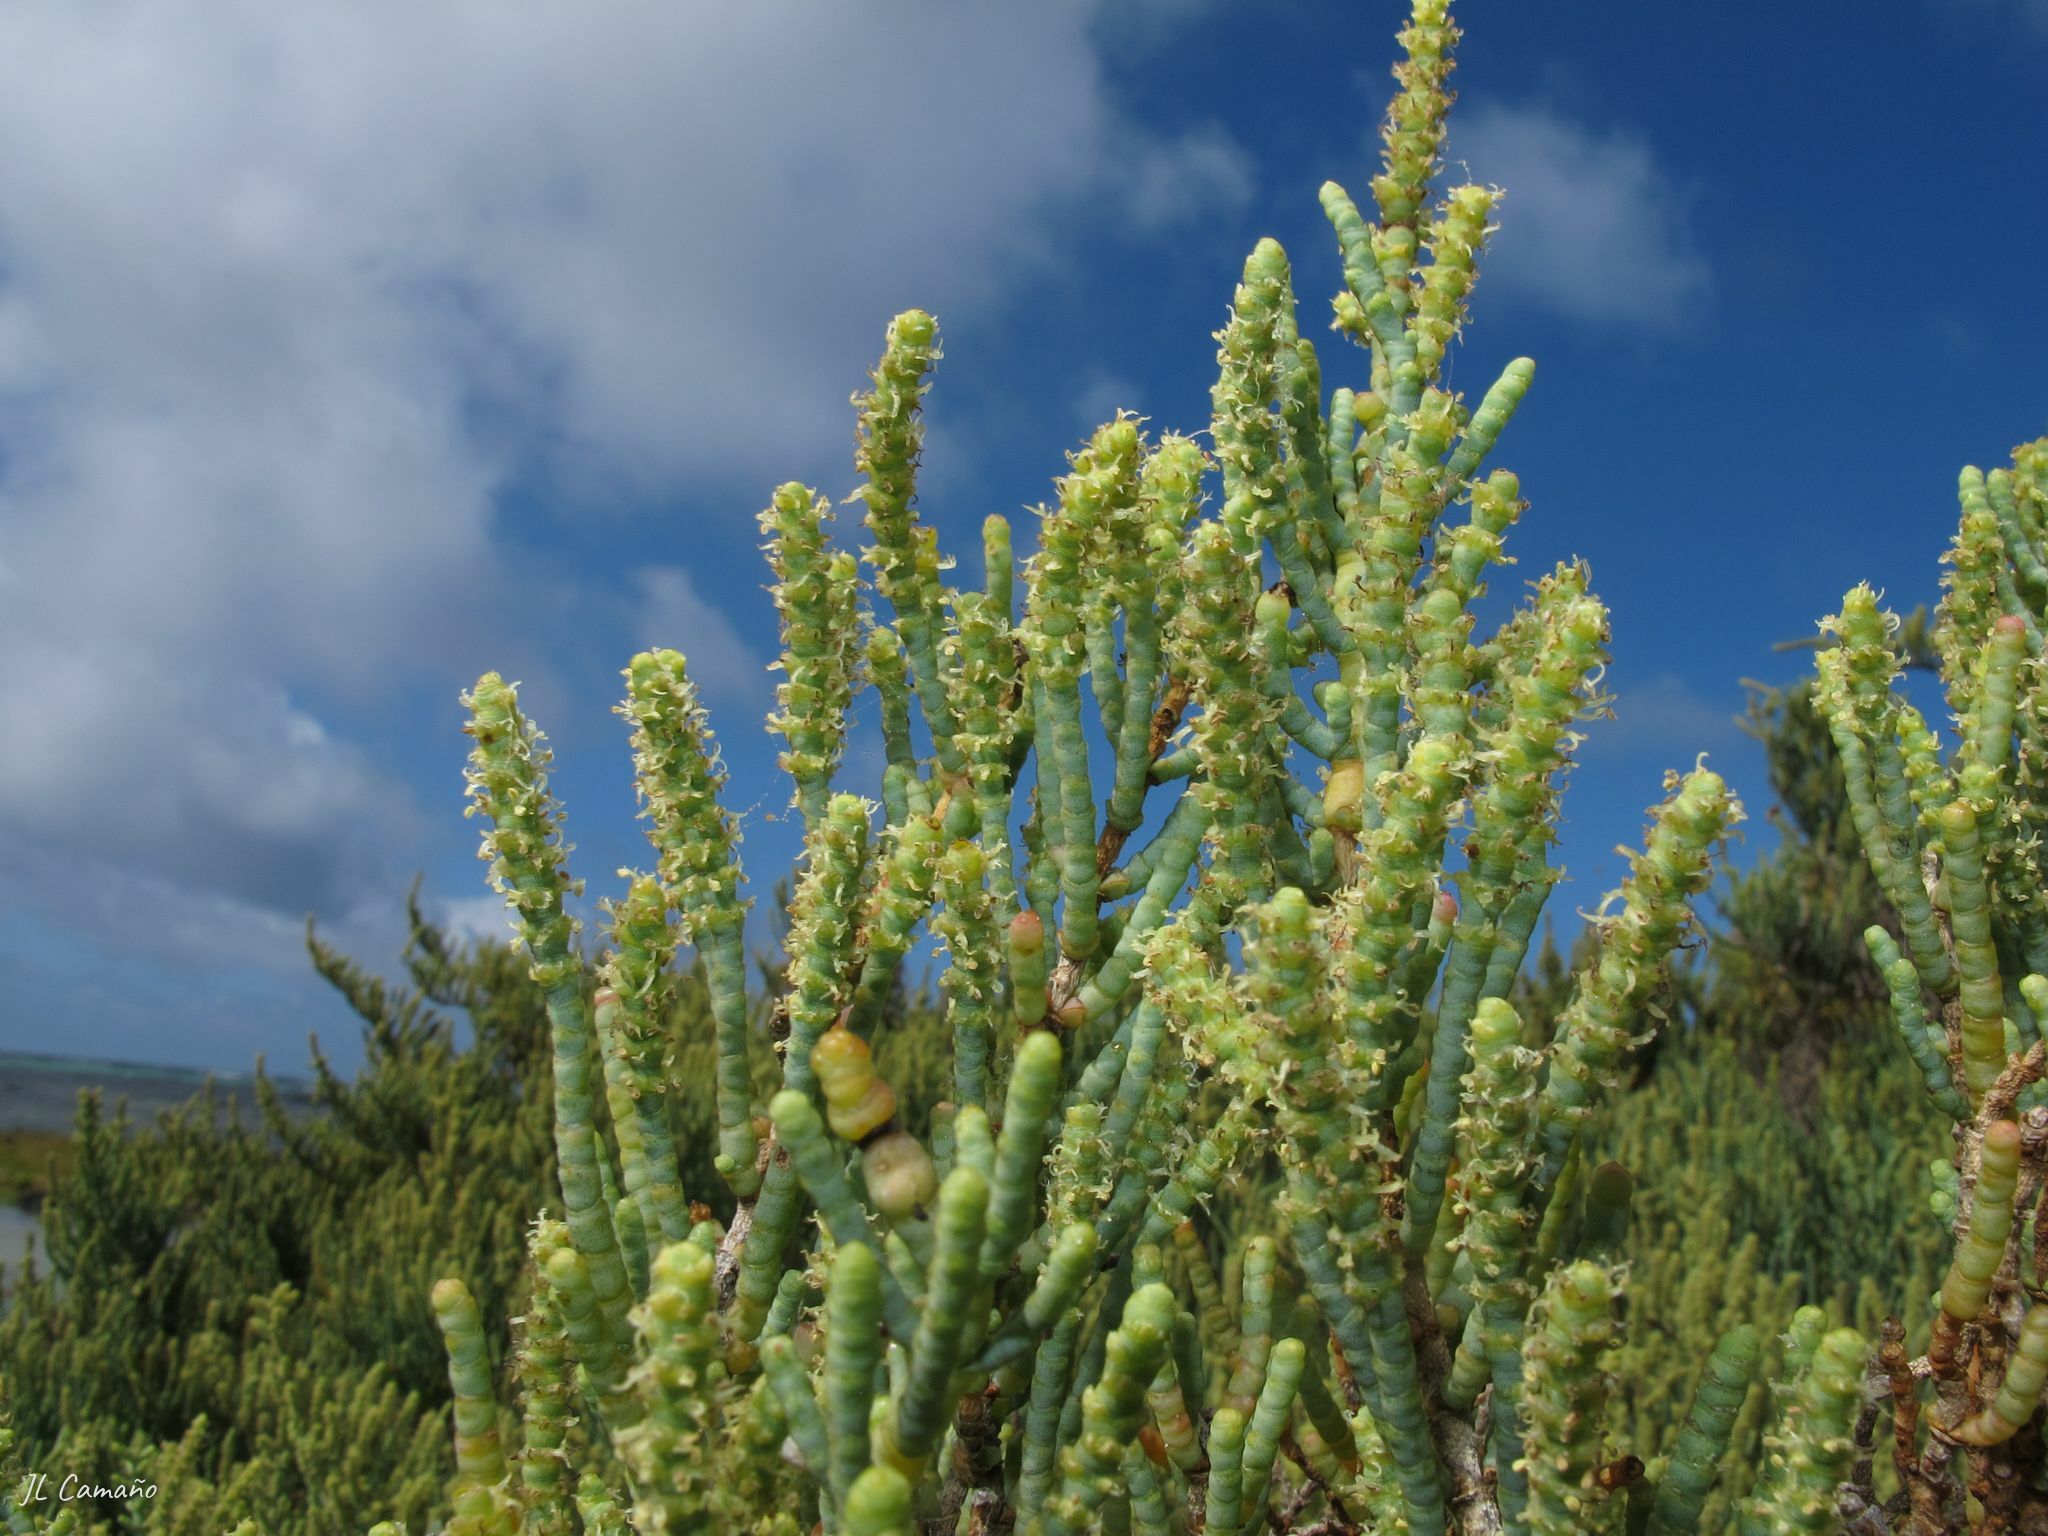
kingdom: Plantae
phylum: Tracheophyta
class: Magnoliopsida
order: Caryophyllales
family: Amaranthaceae
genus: Arthrocaulon
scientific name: Arthrocaulon macrostachyum
